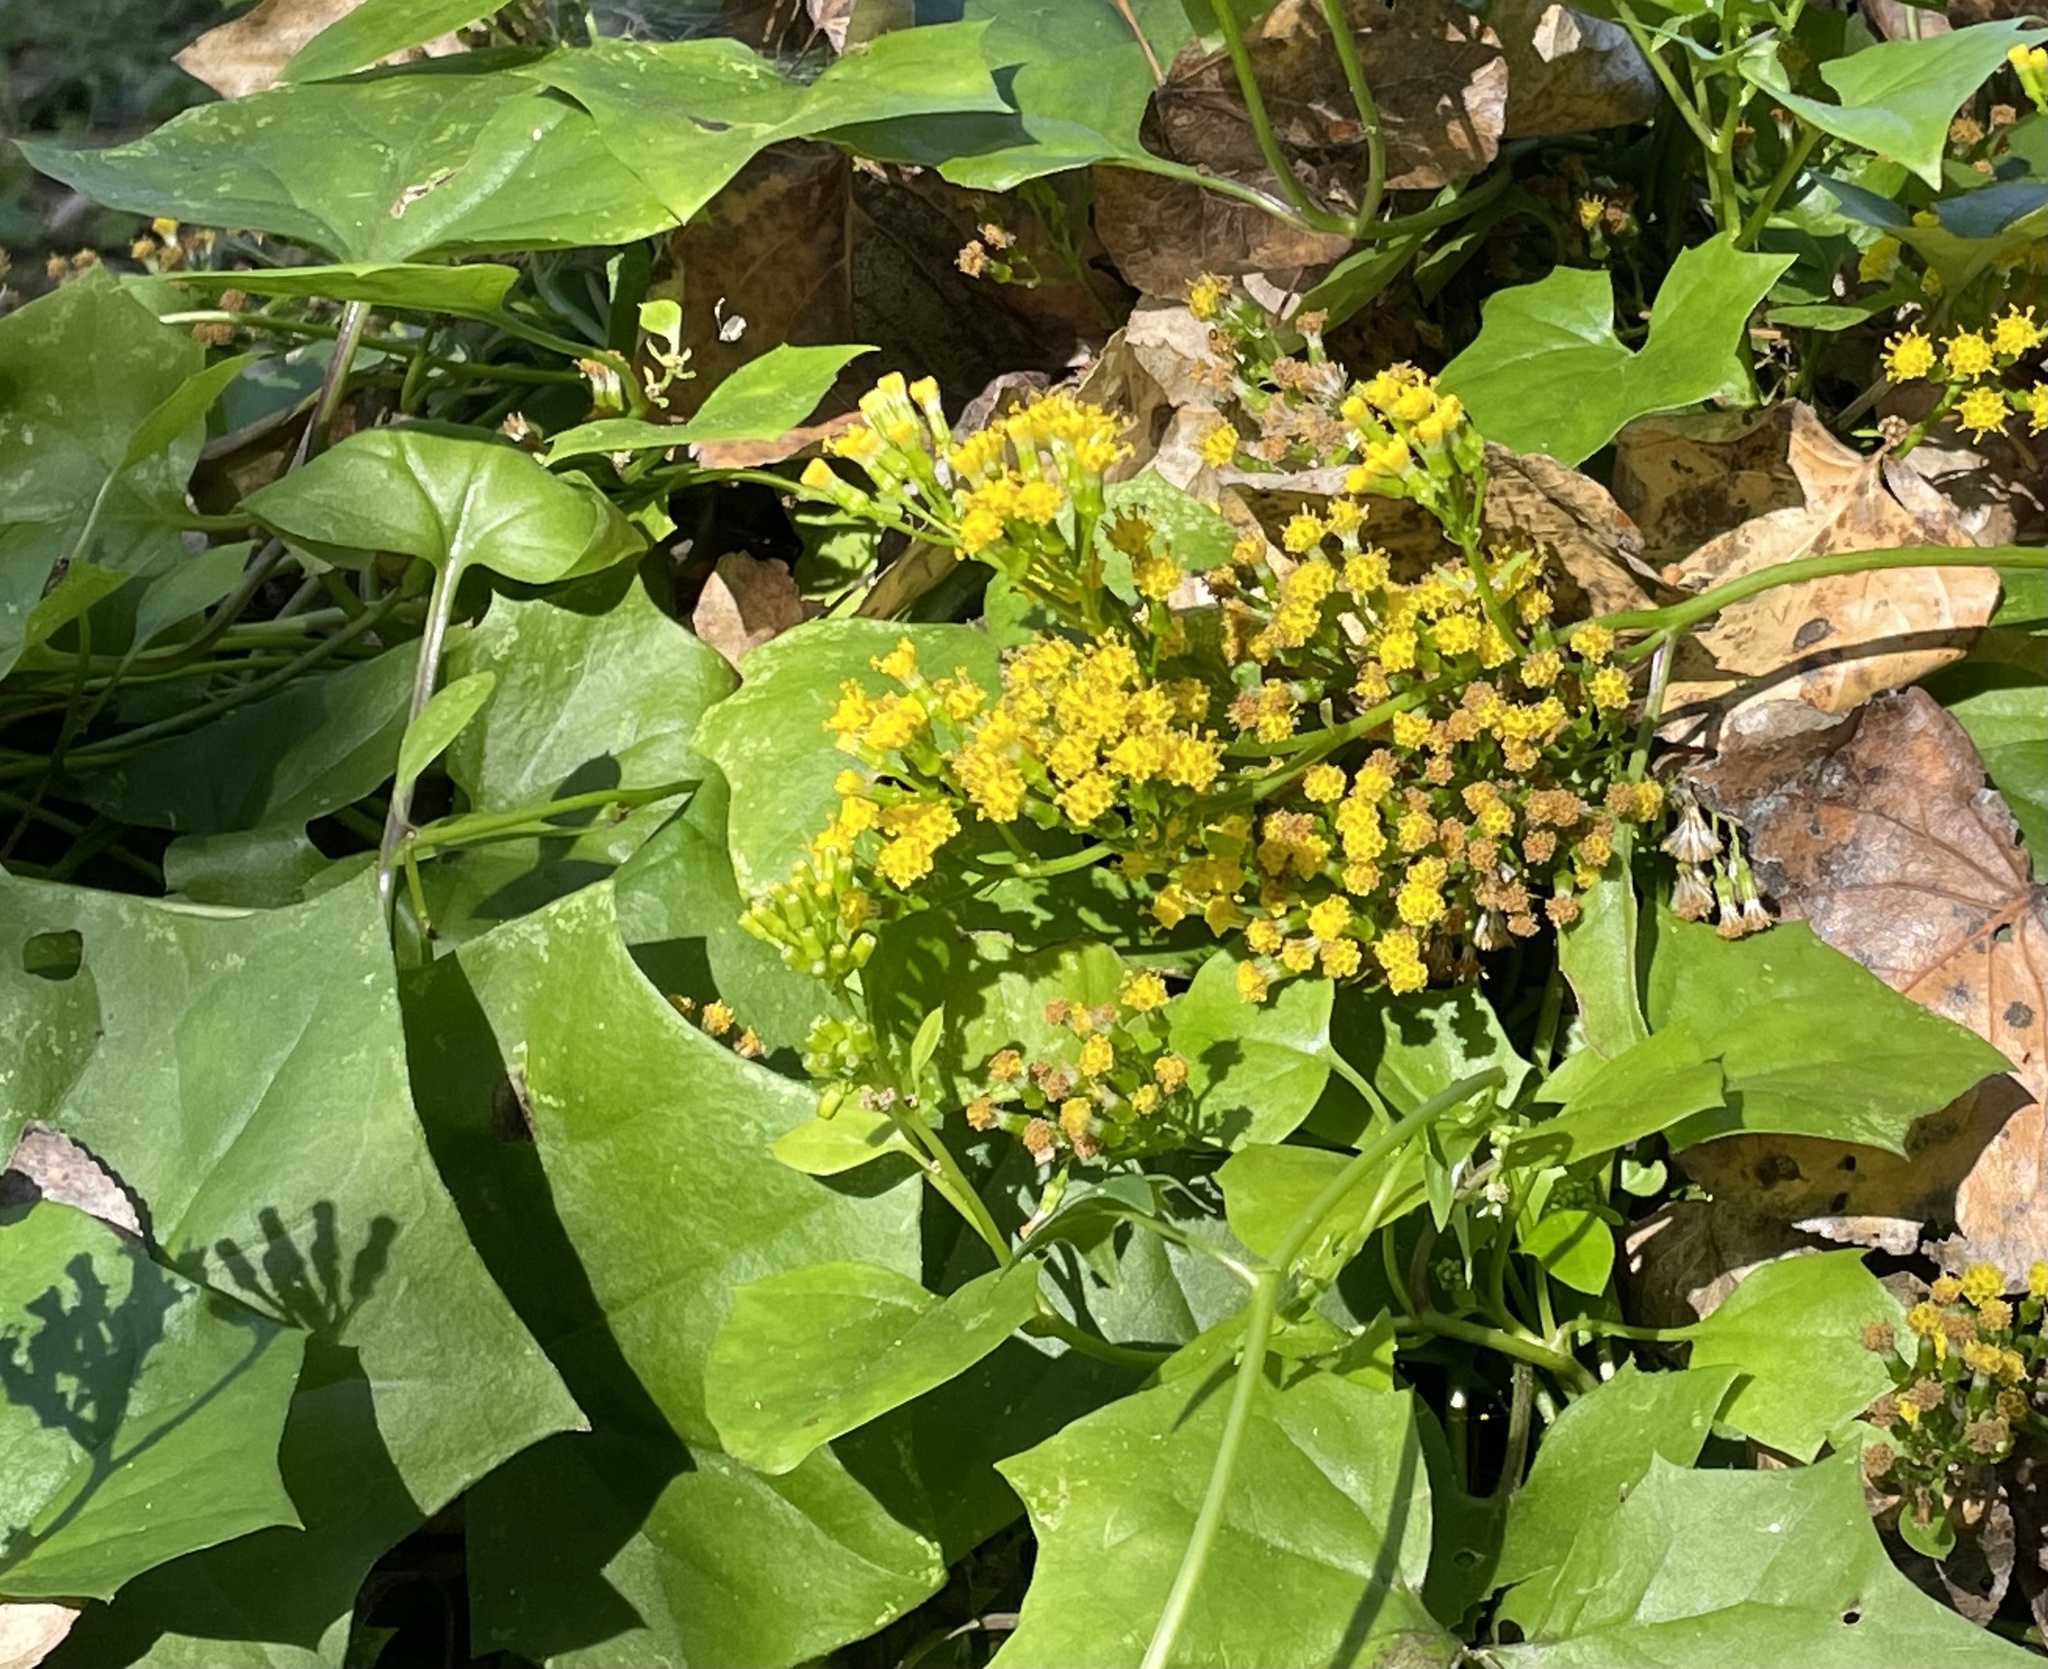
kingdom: Plantae
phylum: Tracheophyta
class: Magnoliopsida
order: Asterales
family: Asteraceae
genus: Delairea
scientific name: Delairea odorata
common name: Cape-ivy
